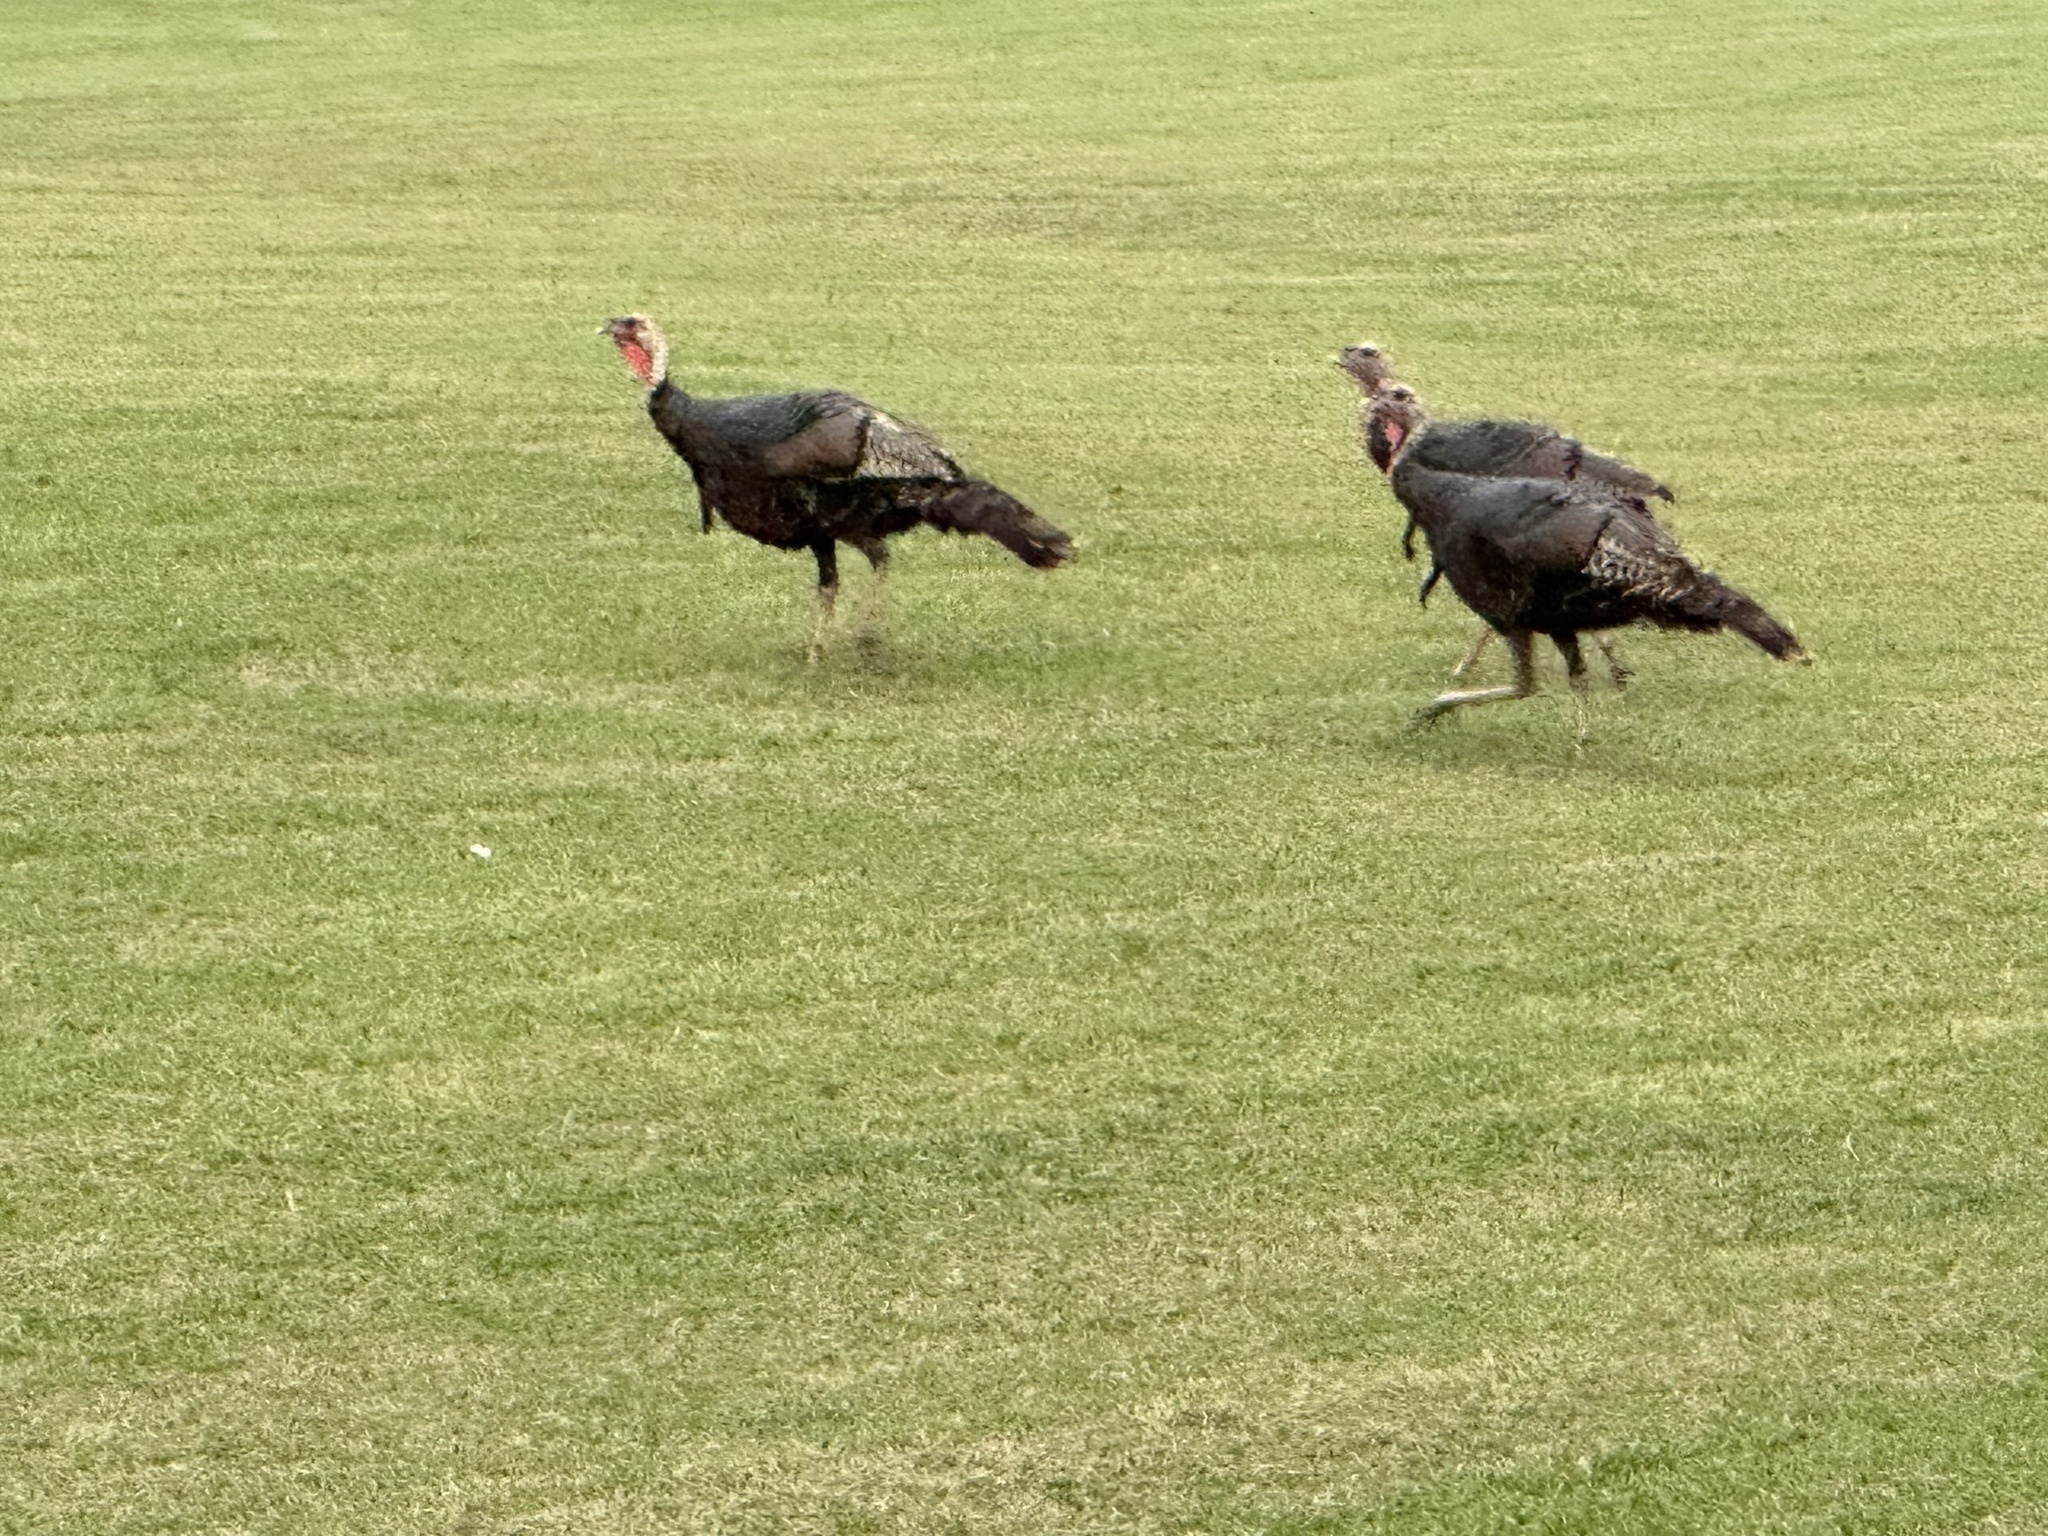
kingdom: Animalia
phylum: Chordata
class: Aves
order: Galliformes
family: Phasianidae
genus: Meleagris
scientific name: Meleagris gallopavo
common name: Wild turkey
